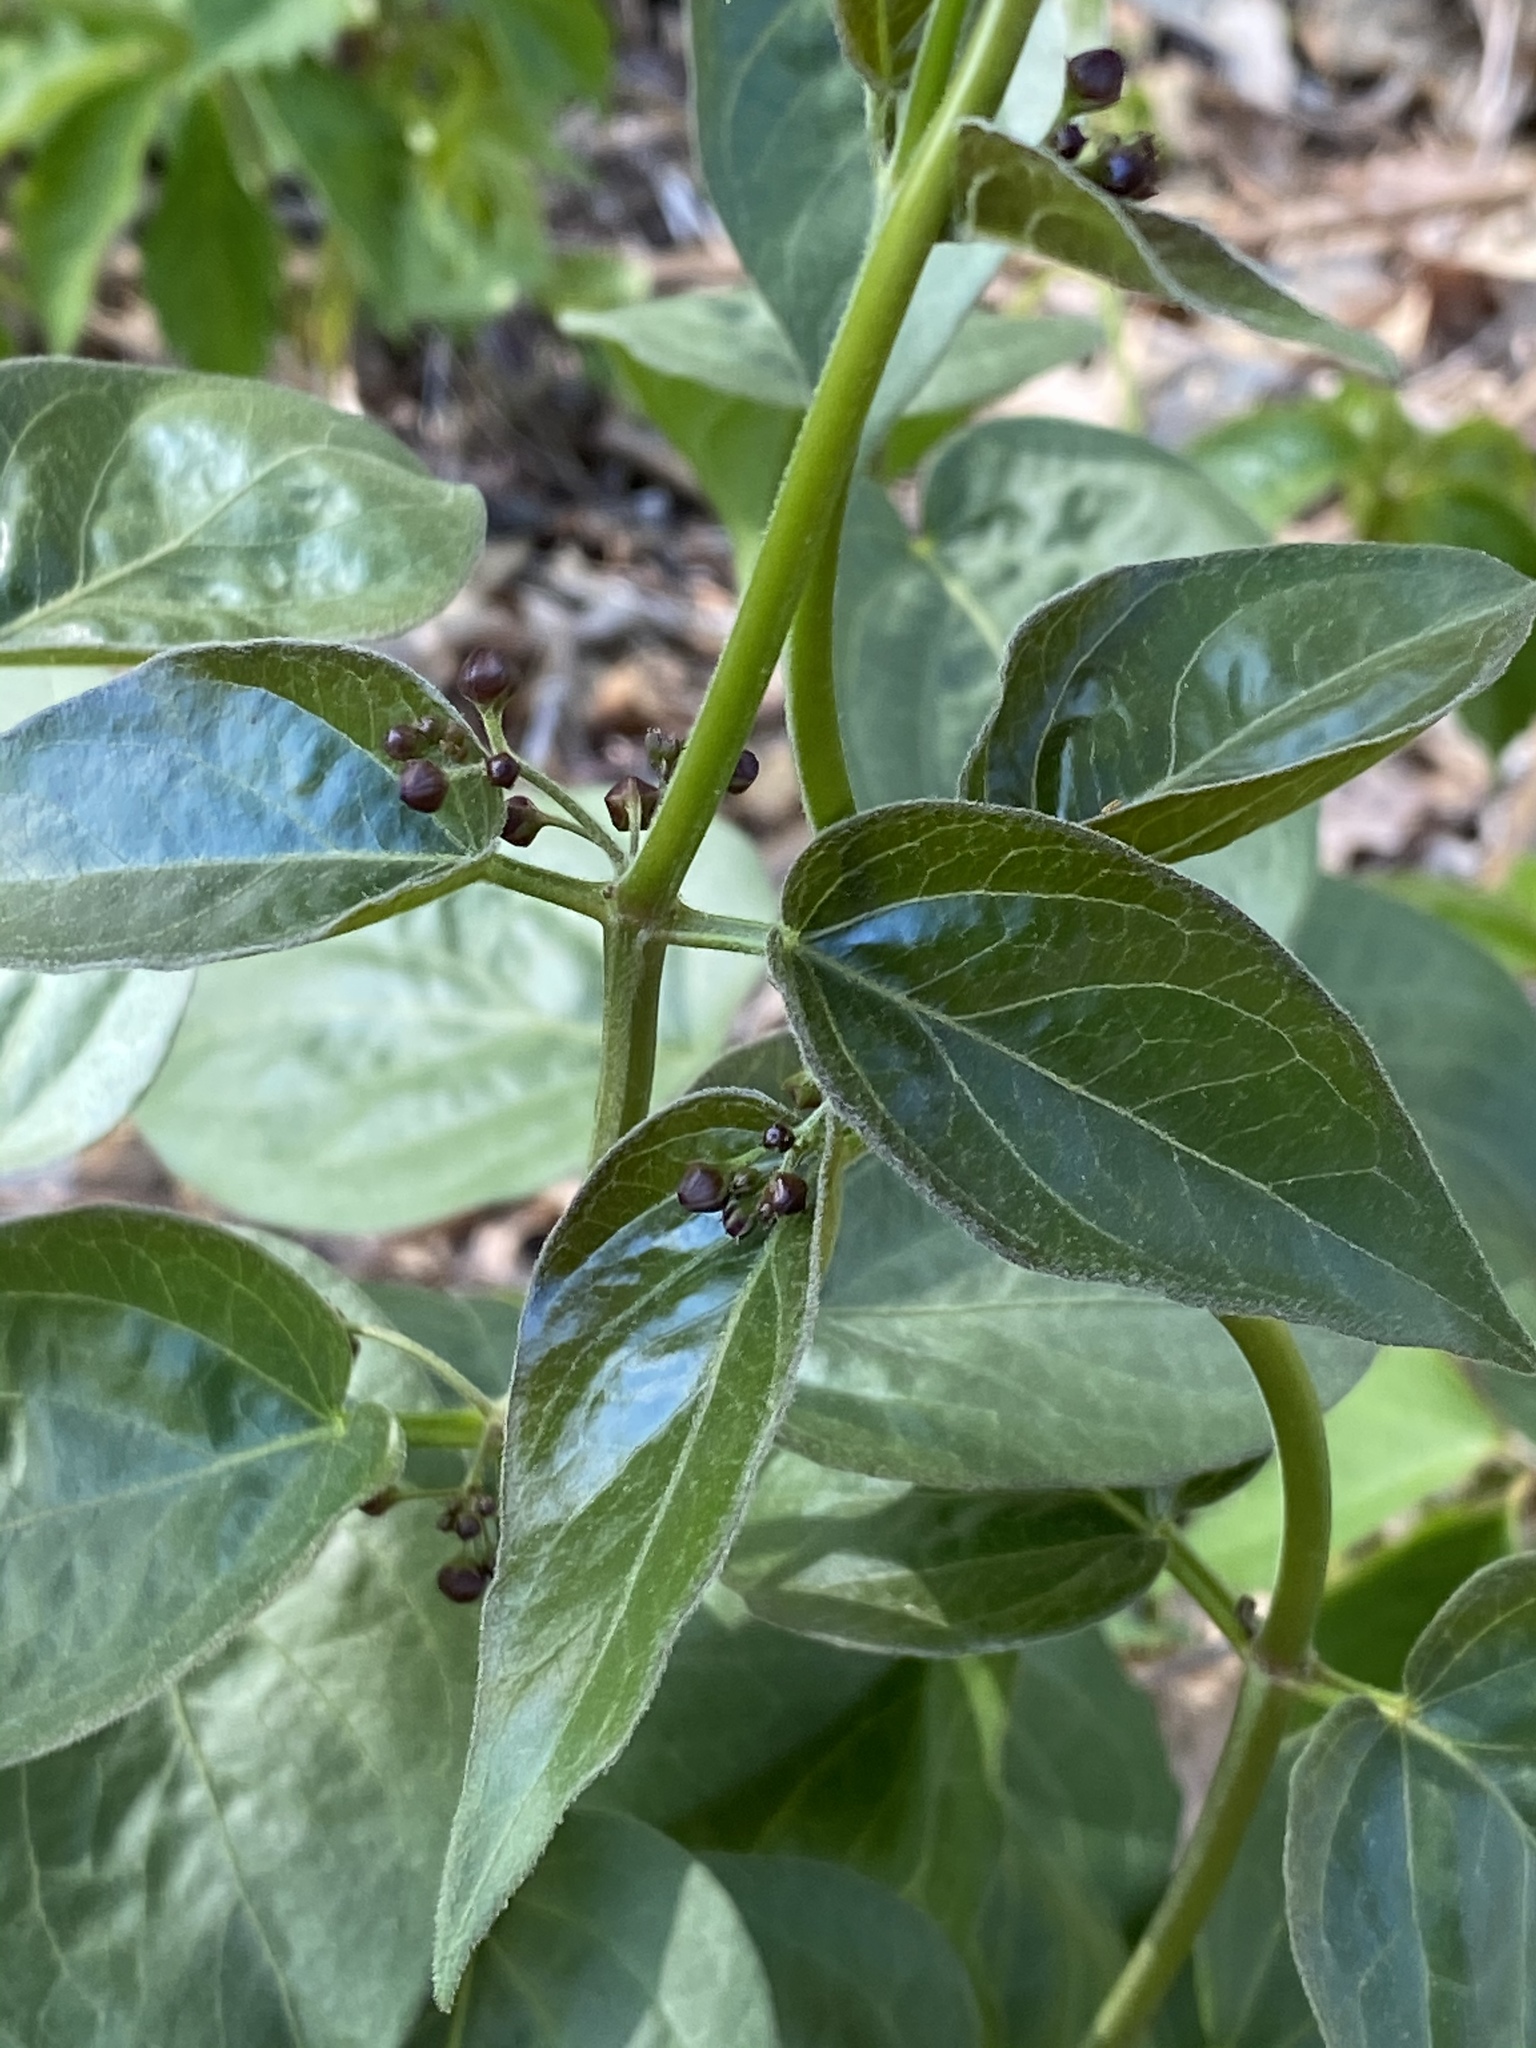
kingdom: Plantae
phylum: Tracheophyta
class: Magnoliopsida
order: Gentianales
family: Apocynaceae
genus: Vincetoxicum
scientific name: Vincetoxicum nigrum
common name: Black swallow-wort
